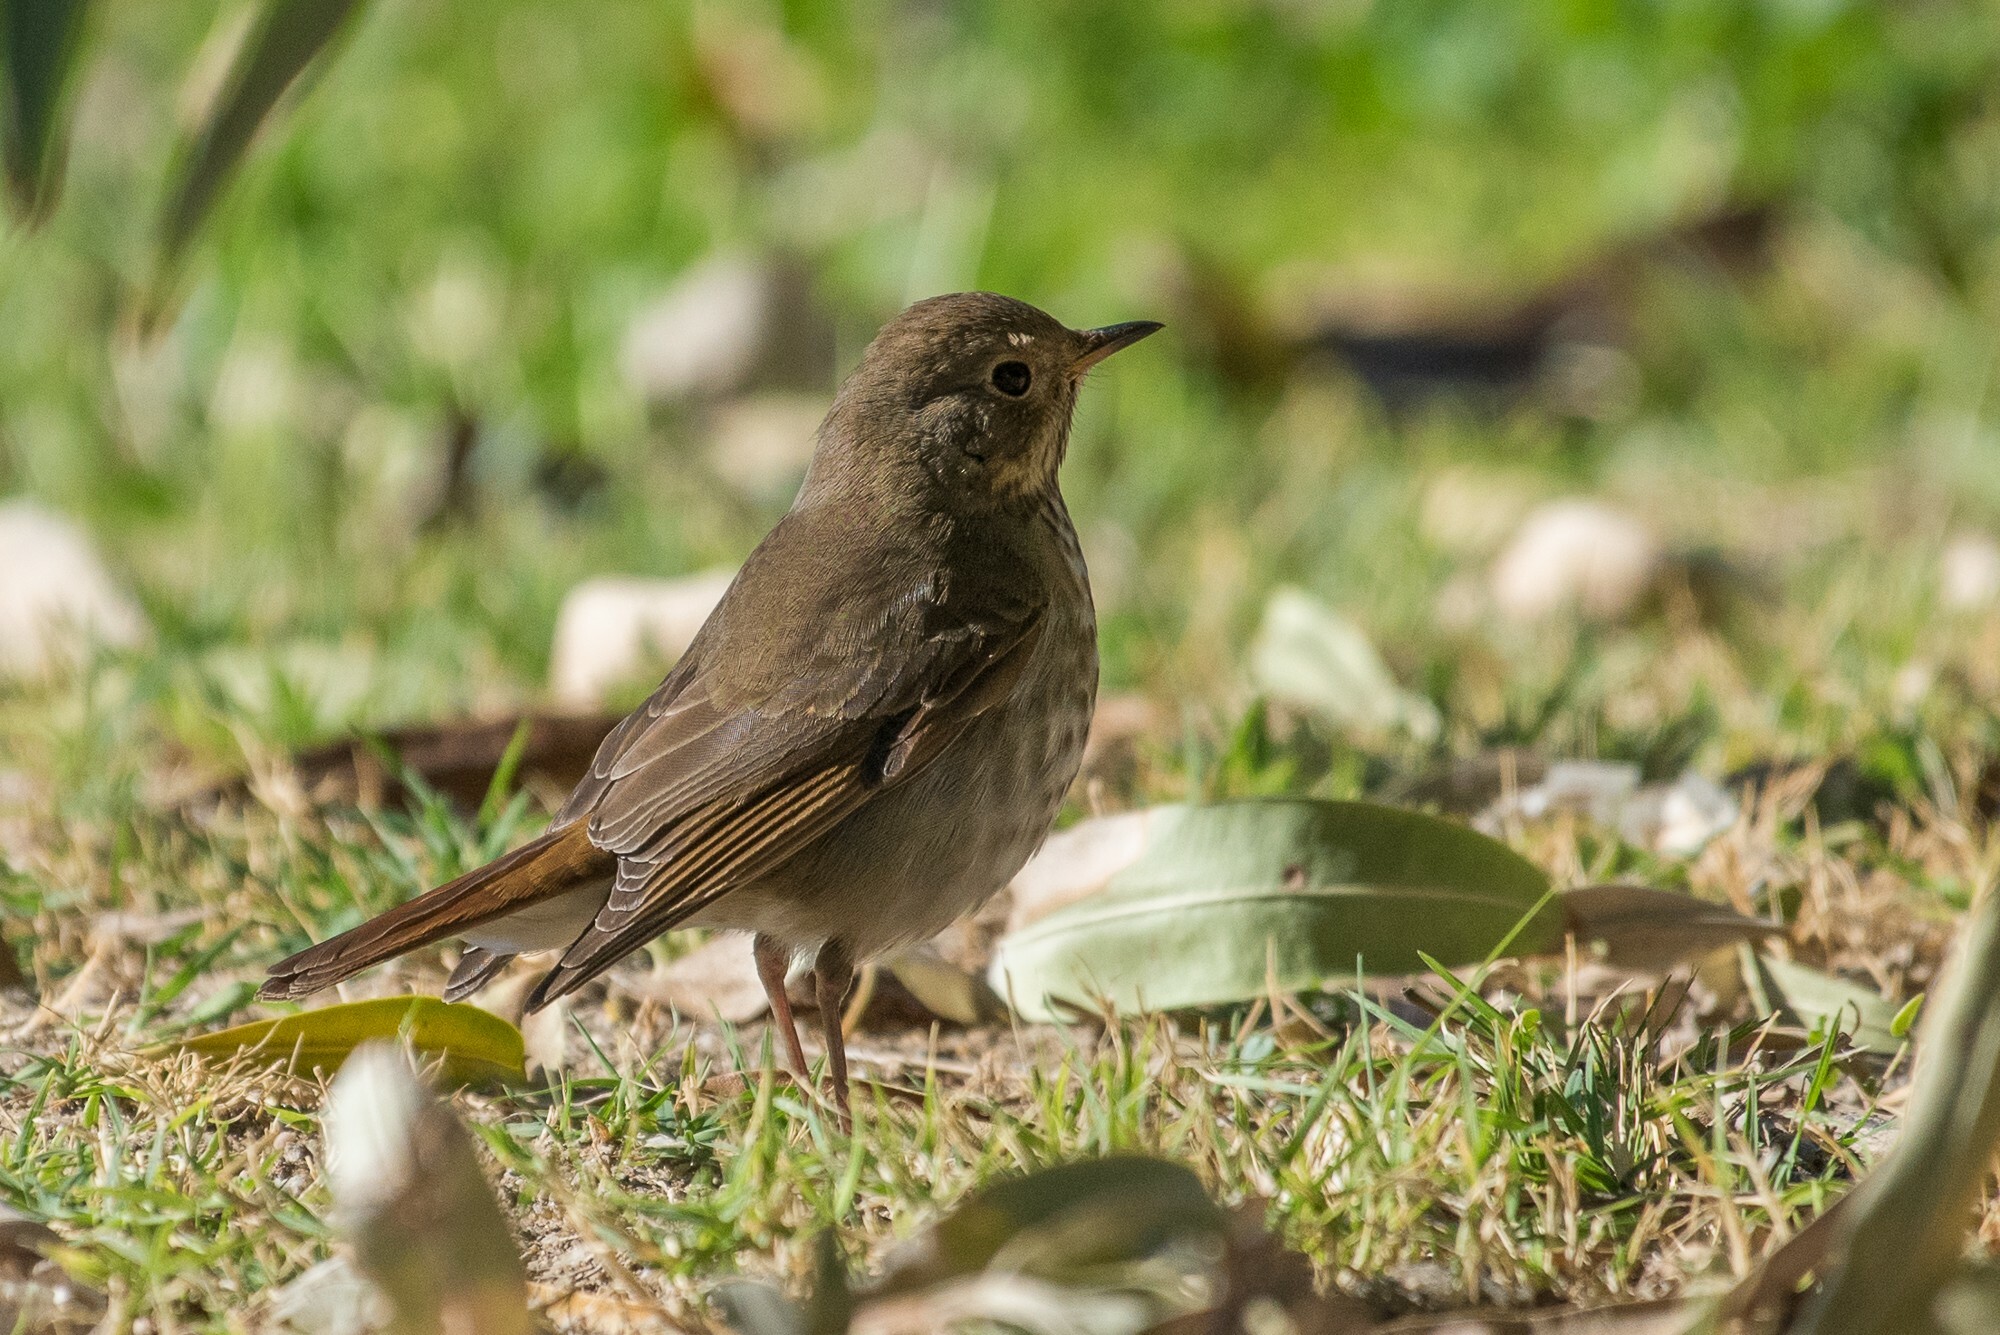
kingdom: Animalia
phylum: Chordata
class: Aves
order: Passeriformes
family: Turdidae
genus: Catharus
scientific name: Catharus guttatus
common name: Hermit thrush
